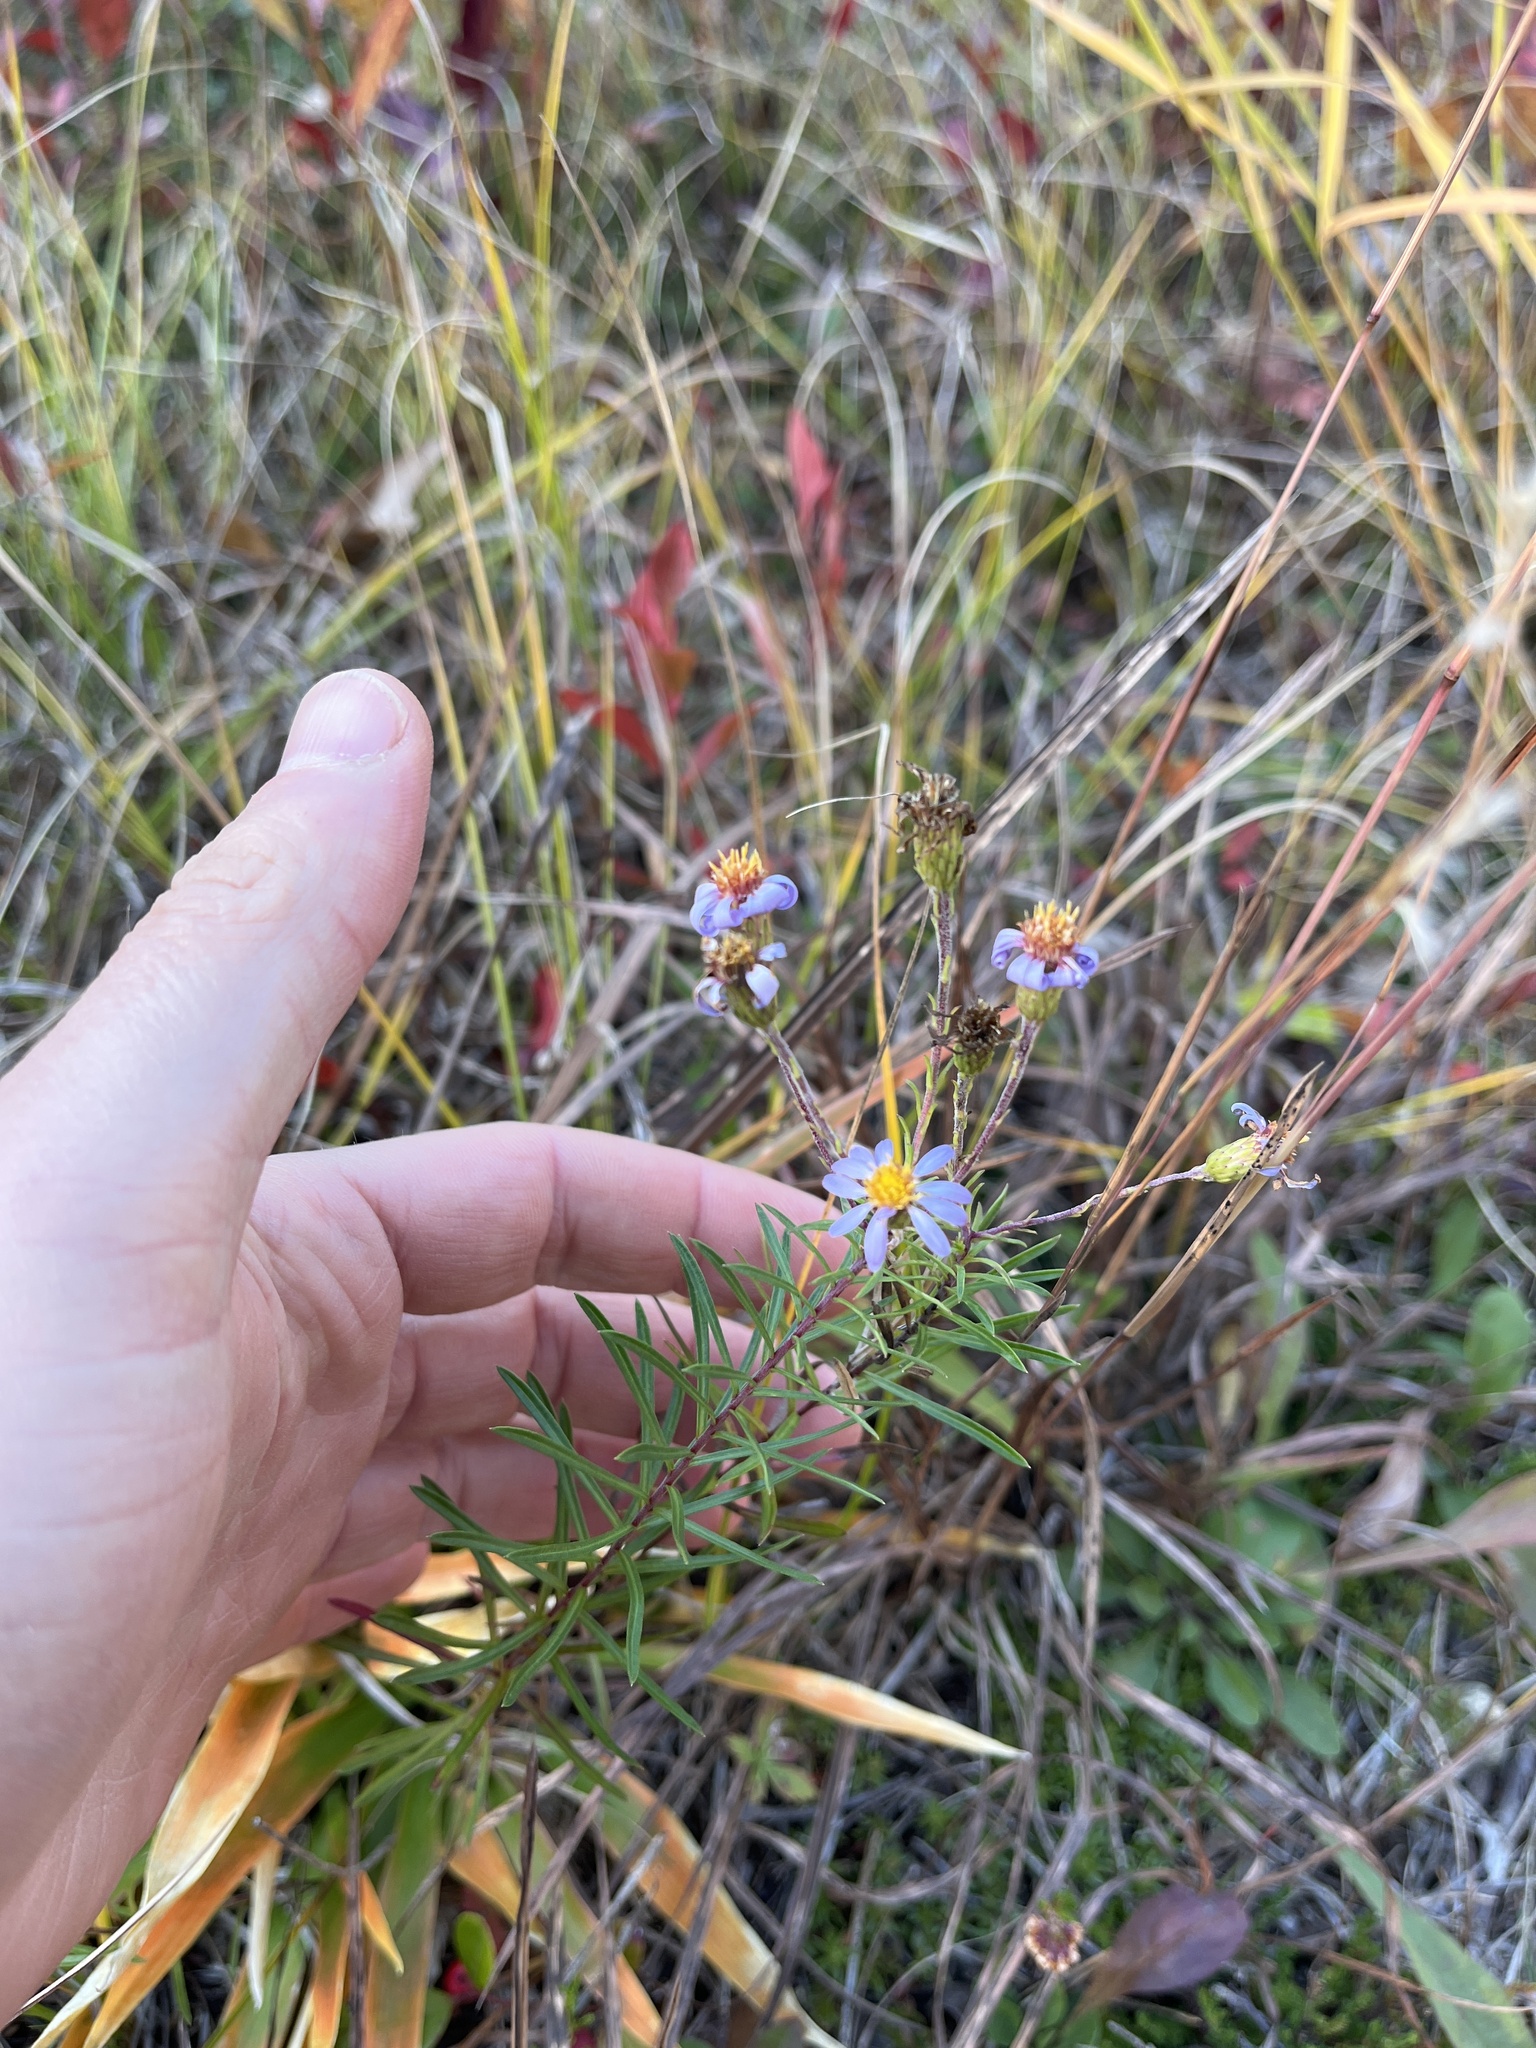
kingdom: Plantae
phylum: Tracheophyta
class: Magnoliopsida
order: Asterales
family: Asteraceae
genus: Ionactis
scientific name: Ionactis linariifolia
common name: Flax-leaf aster
